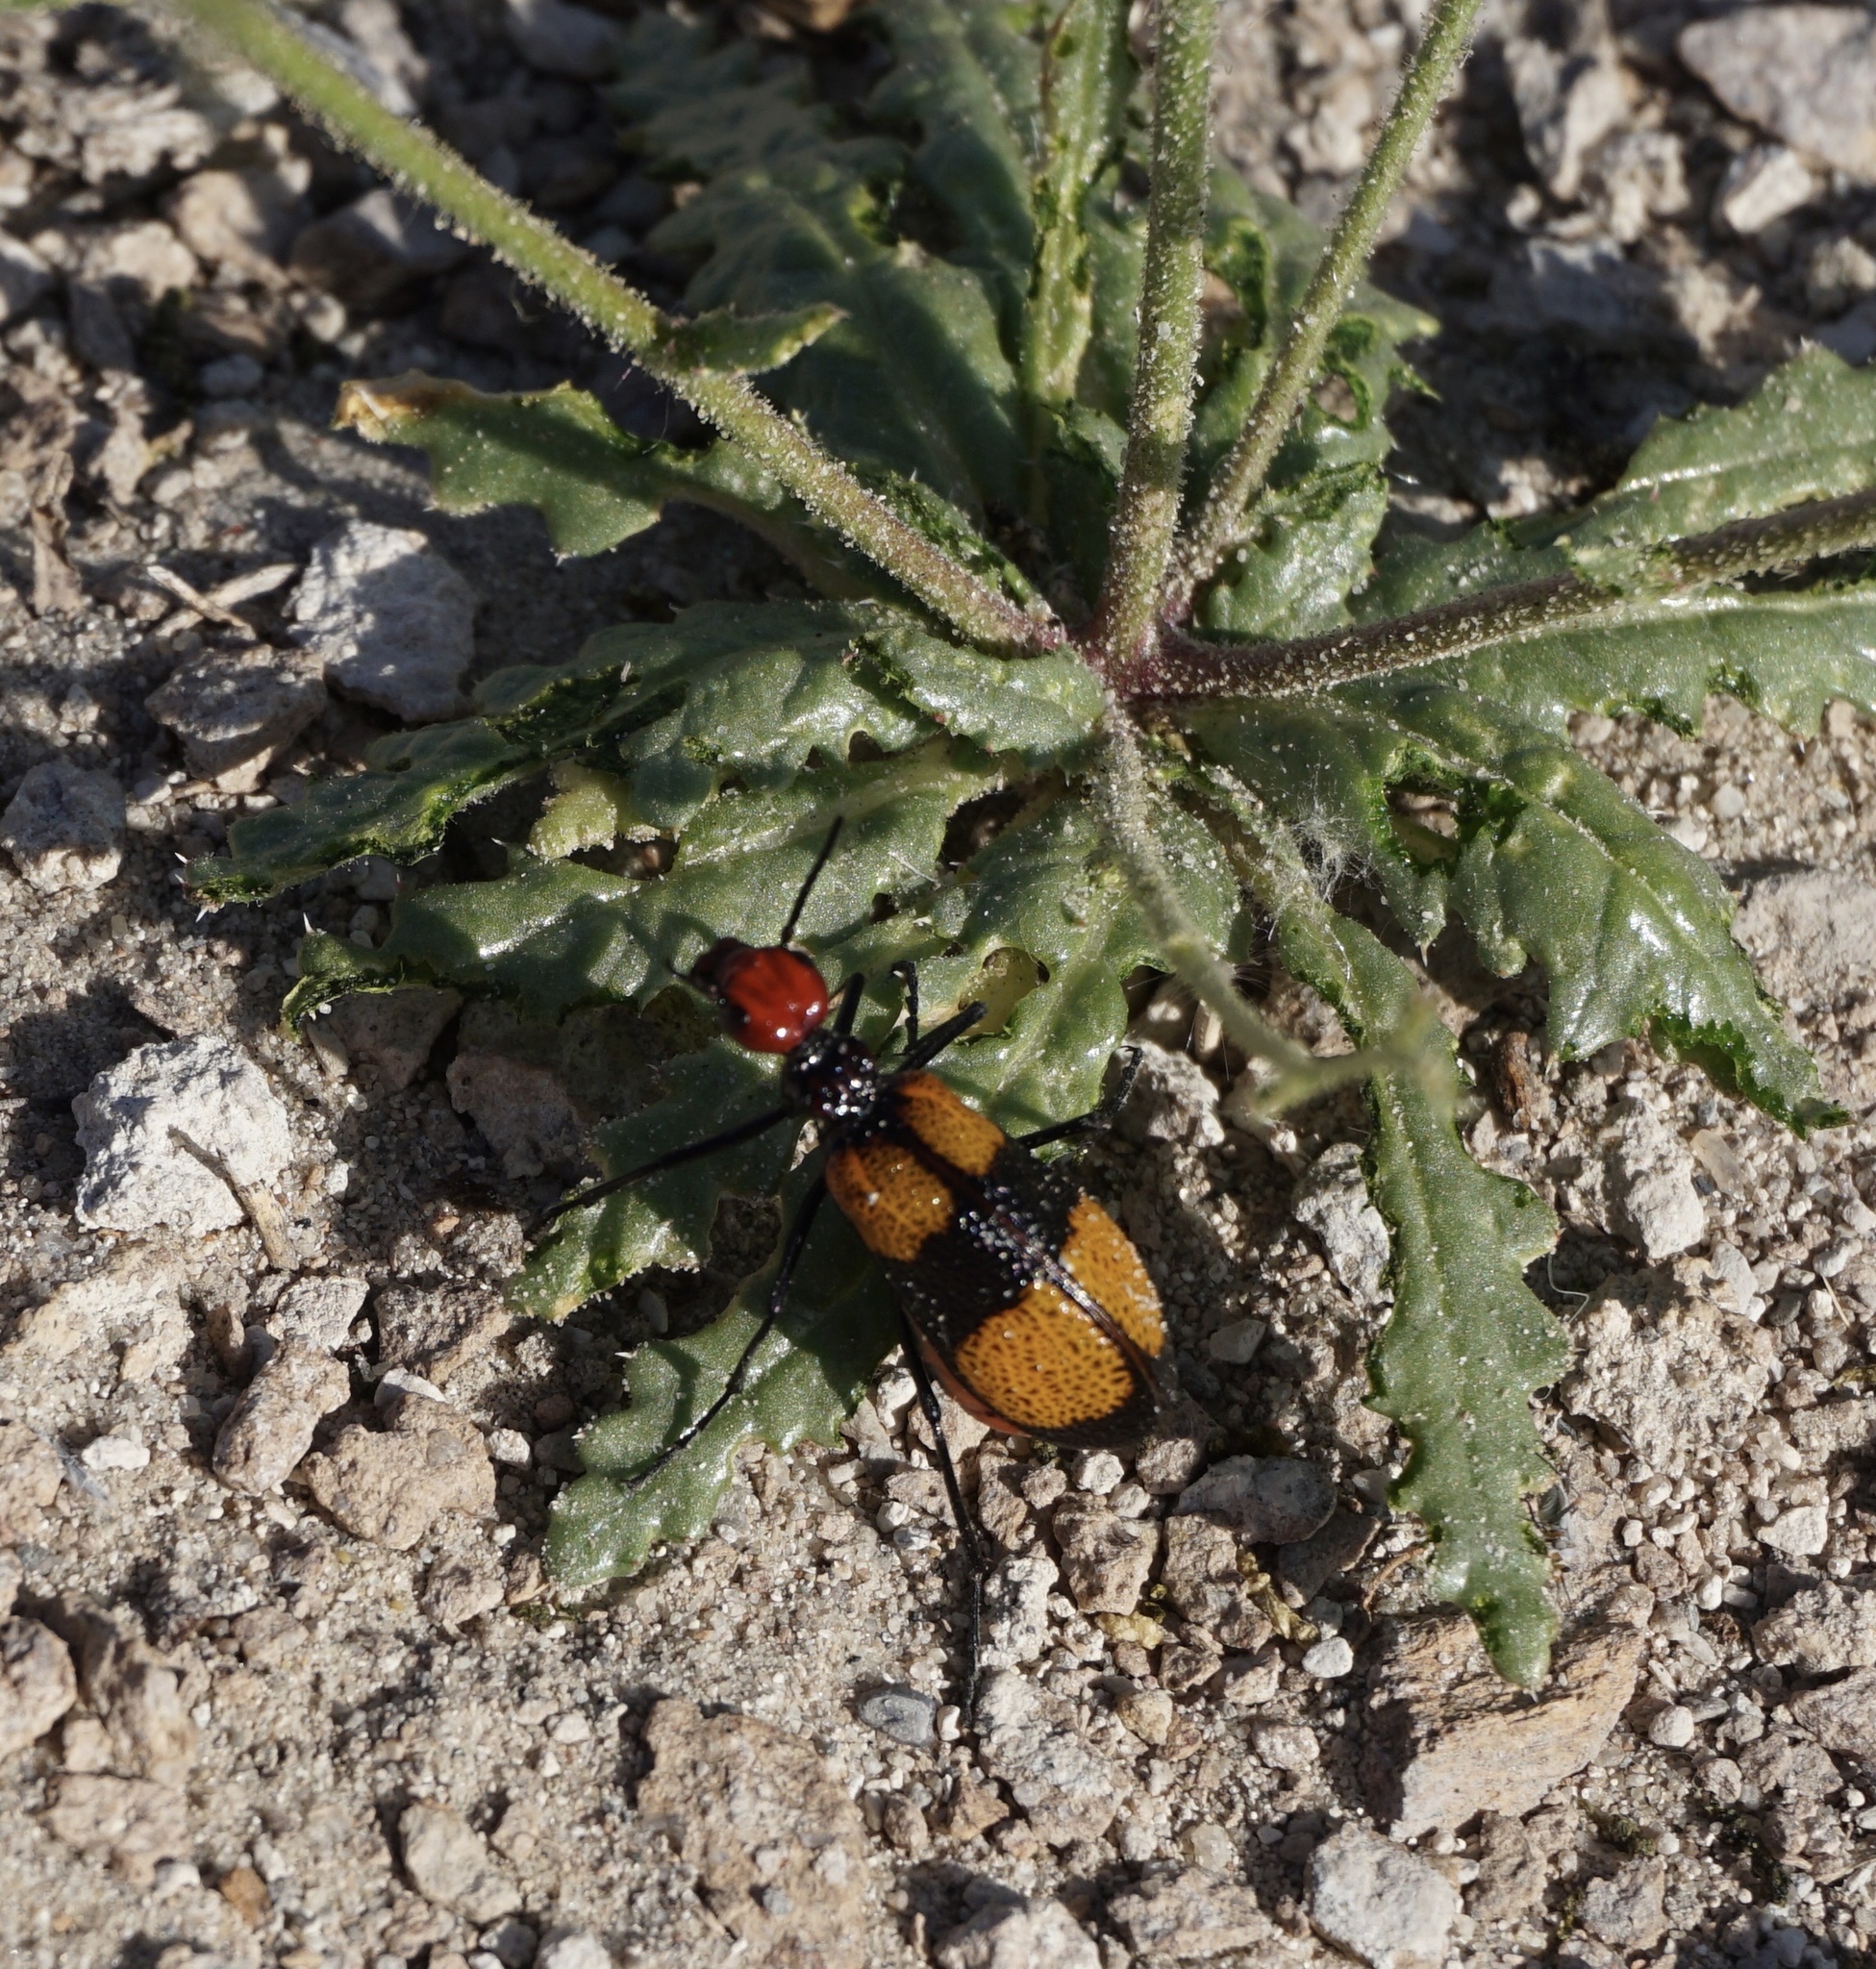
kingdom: Animalia
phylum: Arthropoda
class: Insecta
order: Coleoptera
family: Meloidae
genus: Tegrodera
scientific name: Tegrodera latecincta
